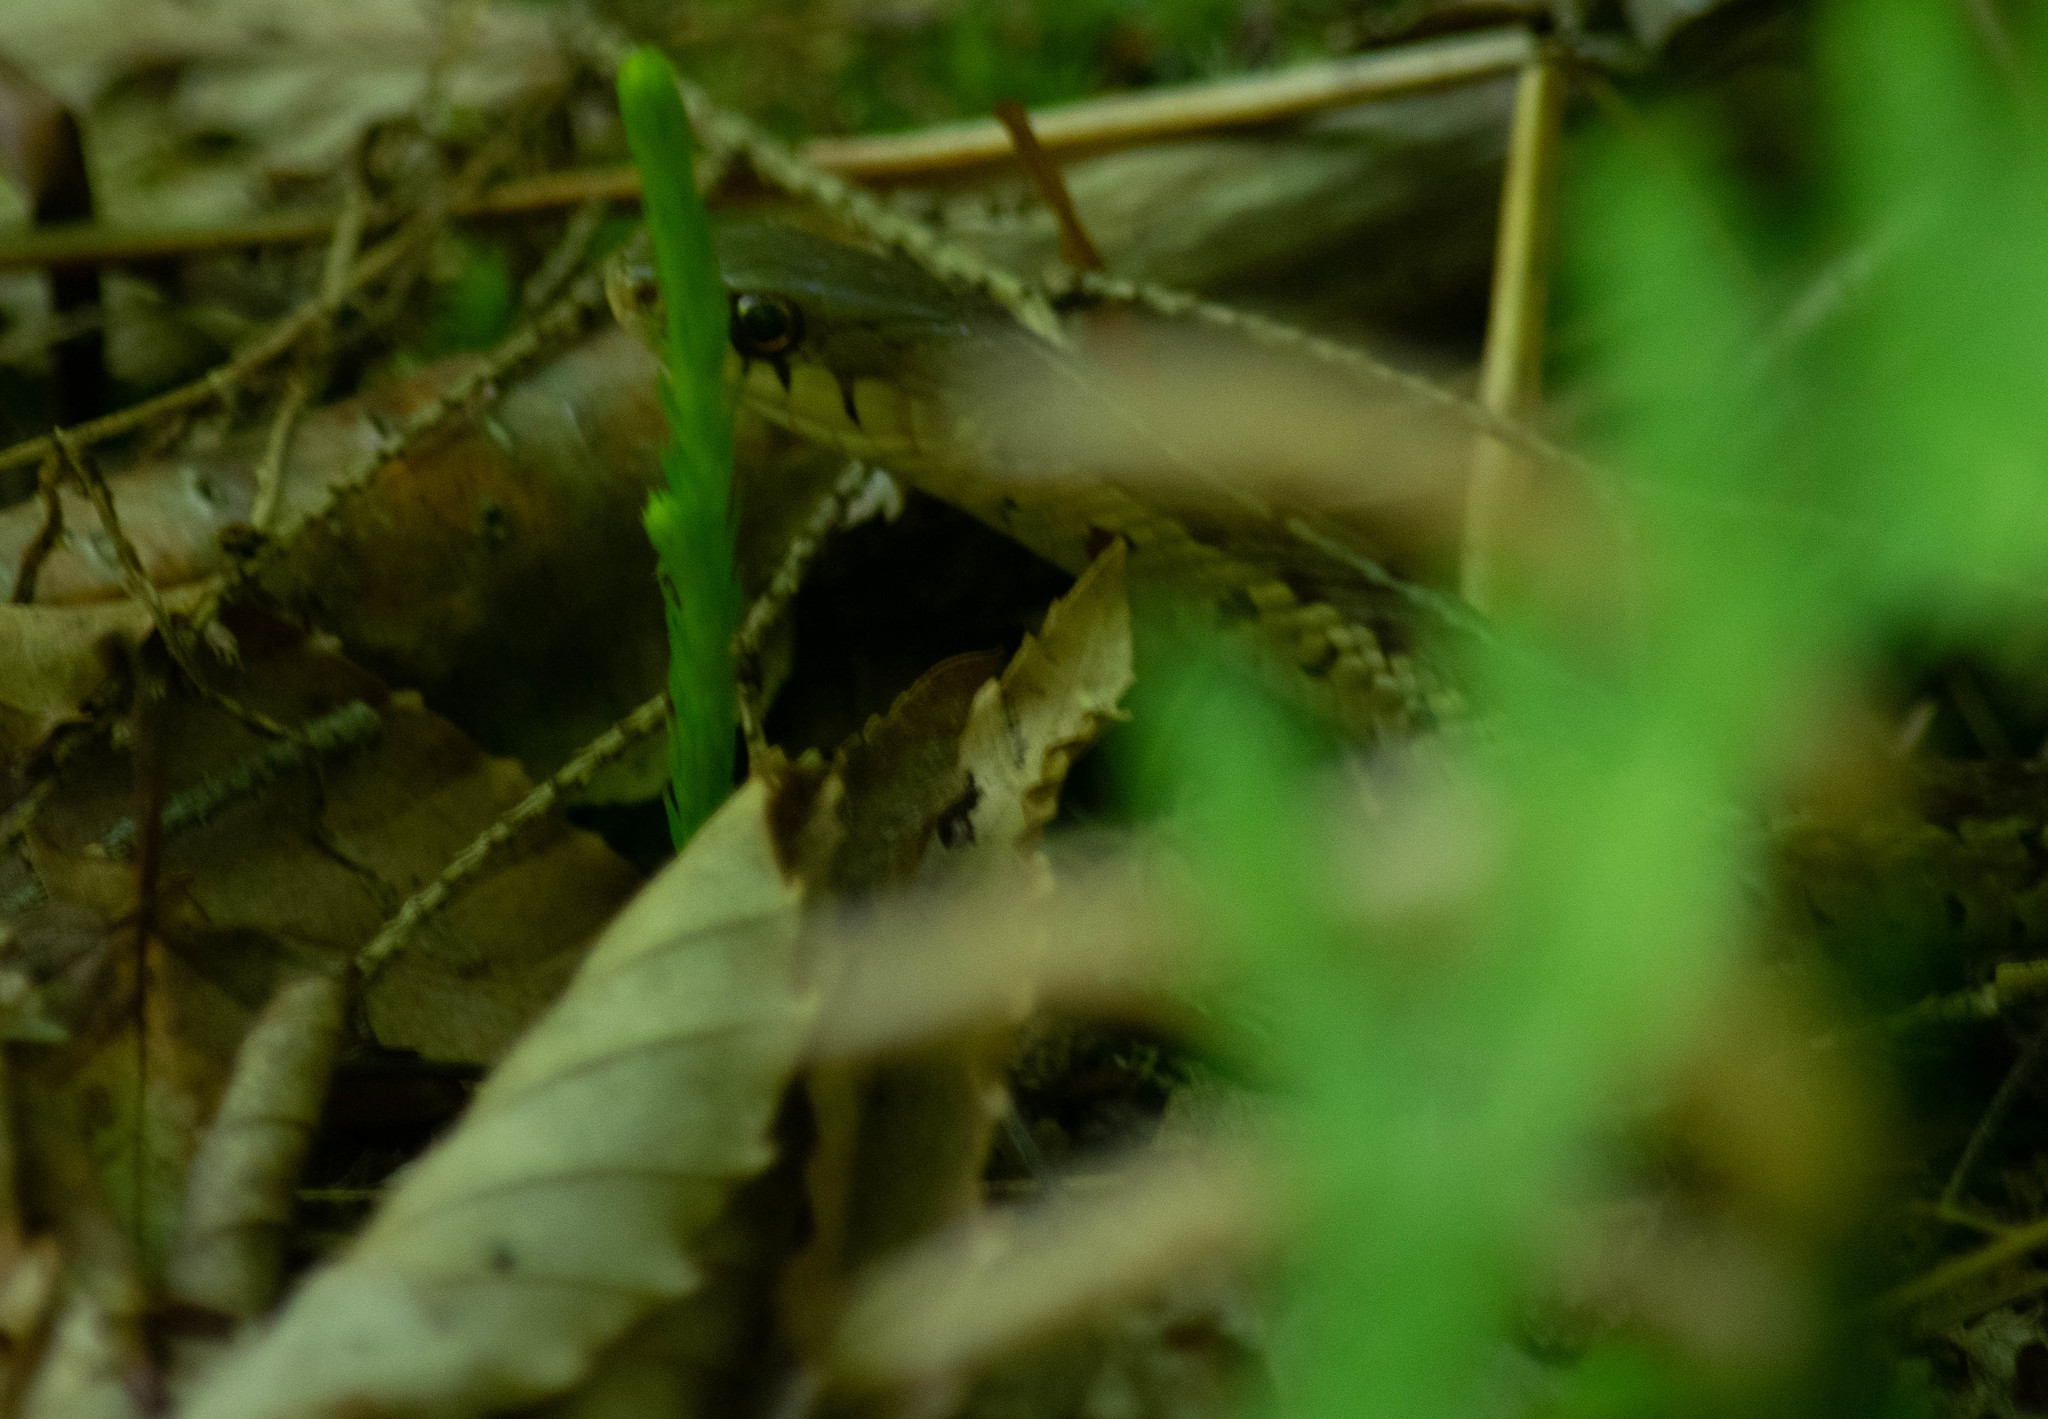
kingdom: Animalia
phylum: Chordata
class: Squamata
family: Colubridae
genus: Thamnophis
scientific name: Thamnophis sirtalis
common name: Common garter snake
